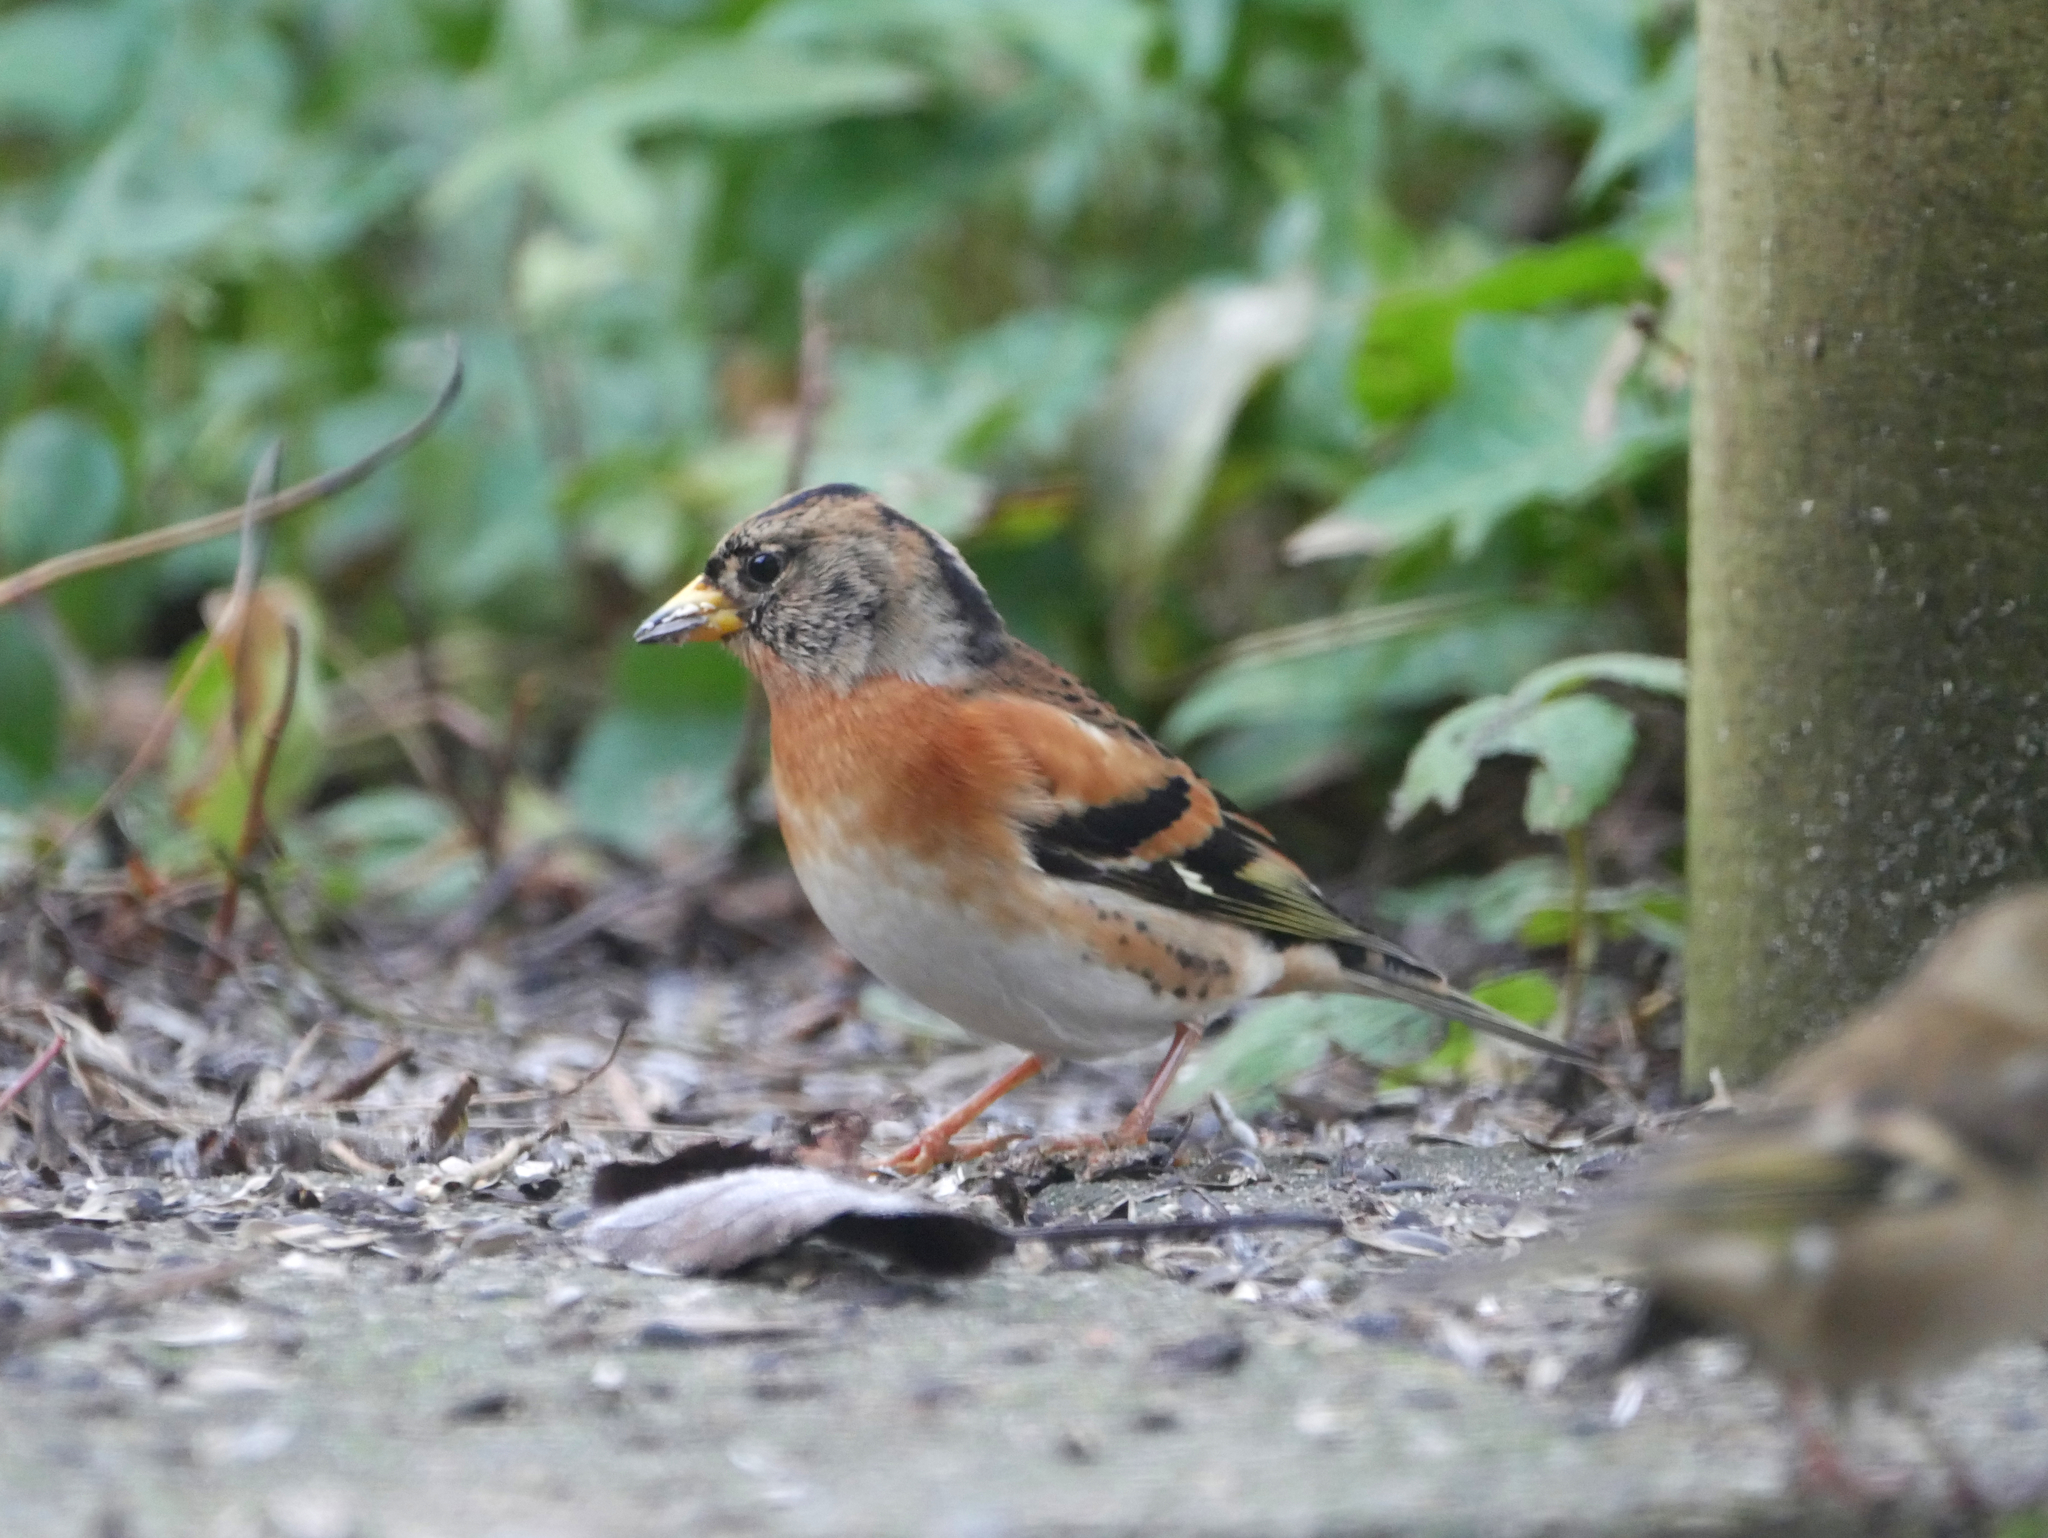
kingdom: Animalia
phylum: Chordata
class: Aves
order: Passeriformes
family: Fringillidae
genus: Fringilla
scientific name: Fringilla montifringilla
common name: Brambling
